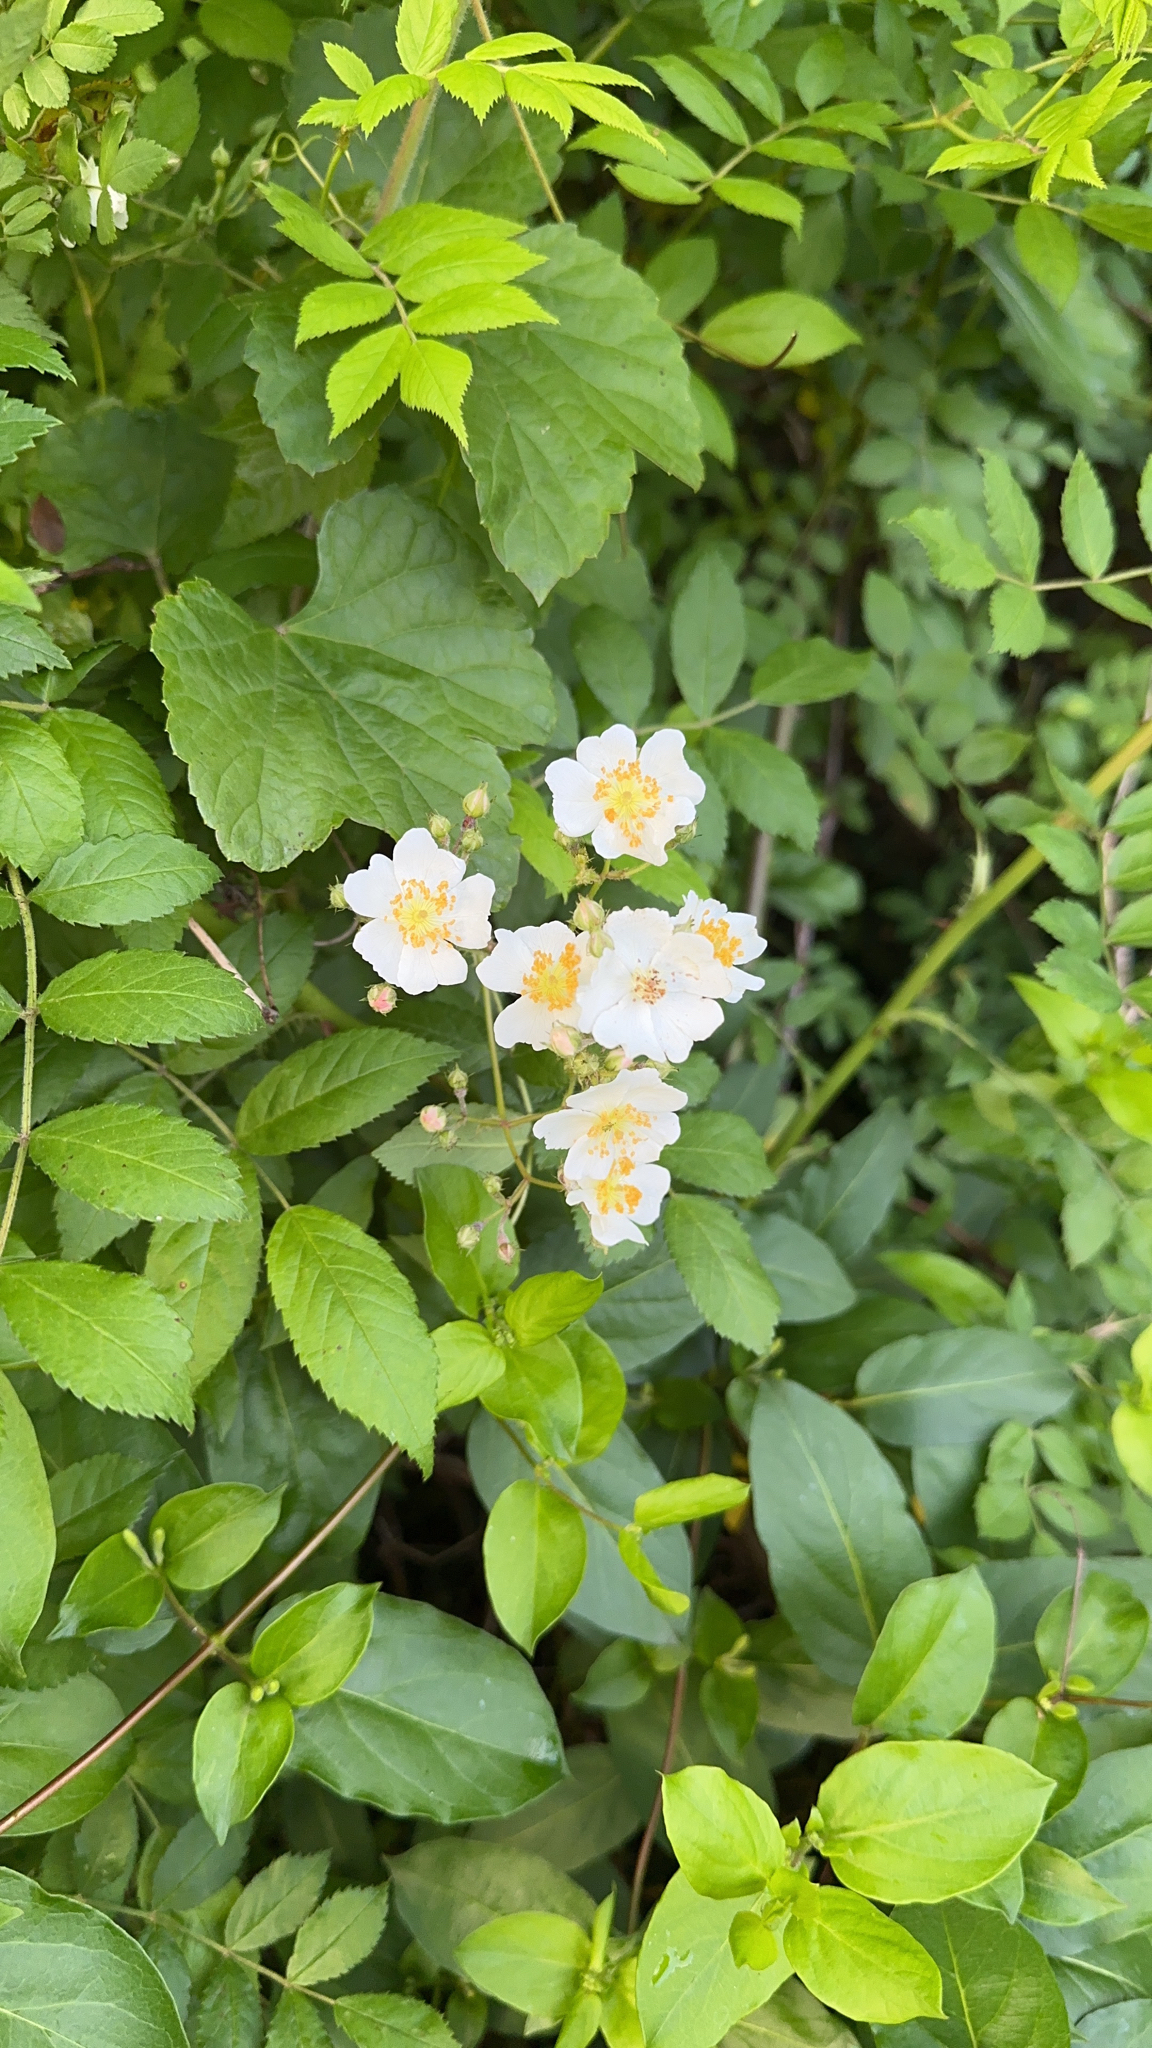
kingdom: Plantae
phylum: Tracheophyta
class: Magnoliopsida
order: Rosales
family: Rosaceae
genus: Rosa
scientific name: Rosa multiflora
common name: Multiflora rose
